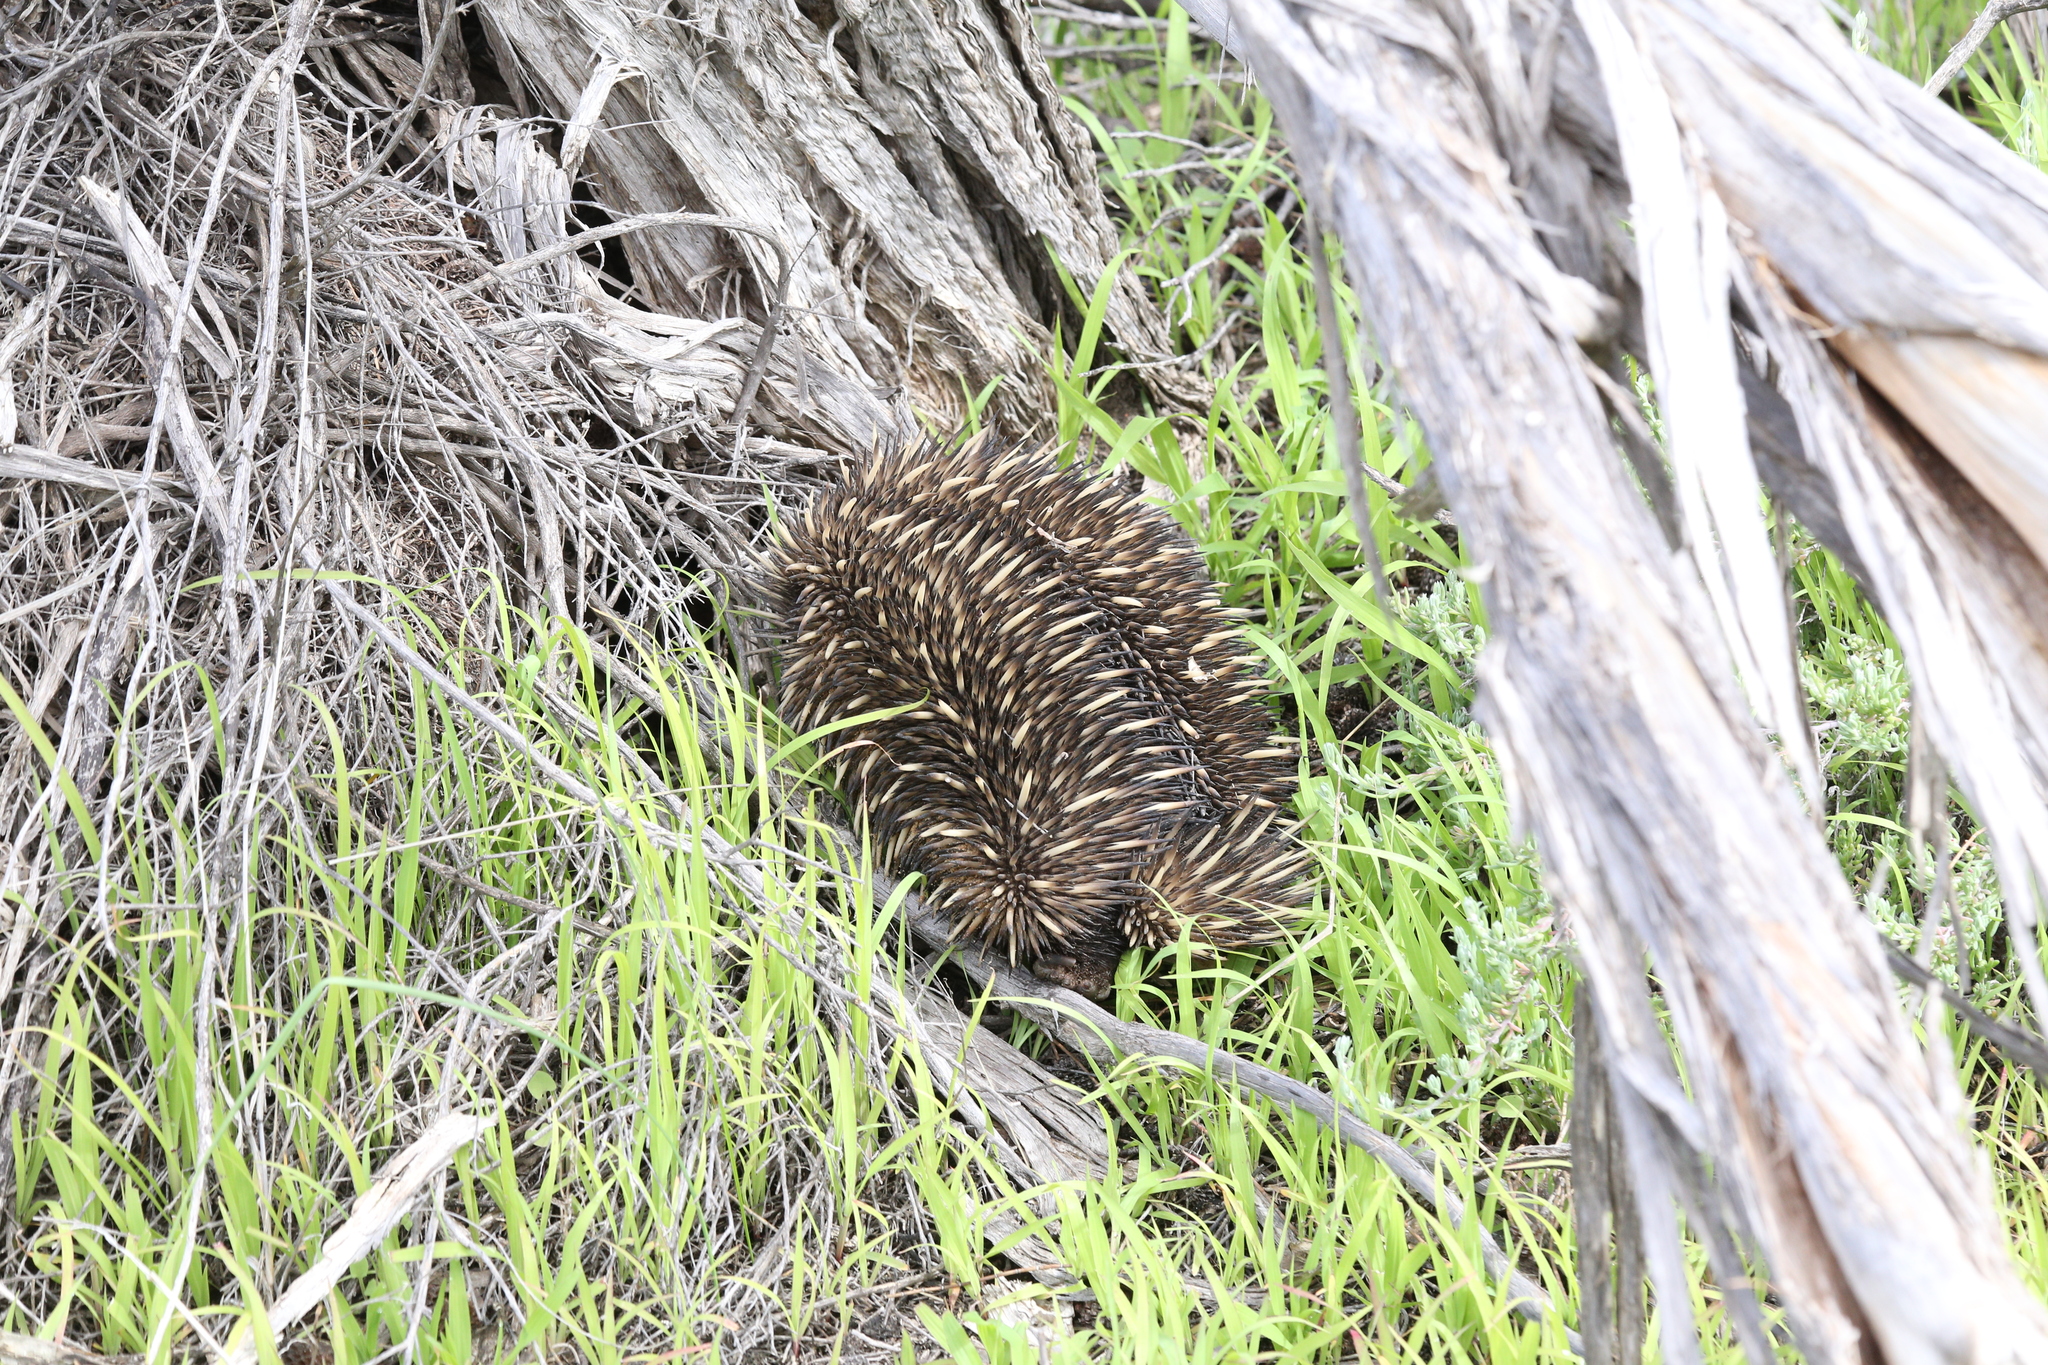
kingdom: Animalia
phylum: Chordata
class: Mammalia
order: Monotremata
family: Tachyglossidae
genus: Tachyglossus
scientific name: Tachyglossus aculeatus
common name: Short-beaked echidna
